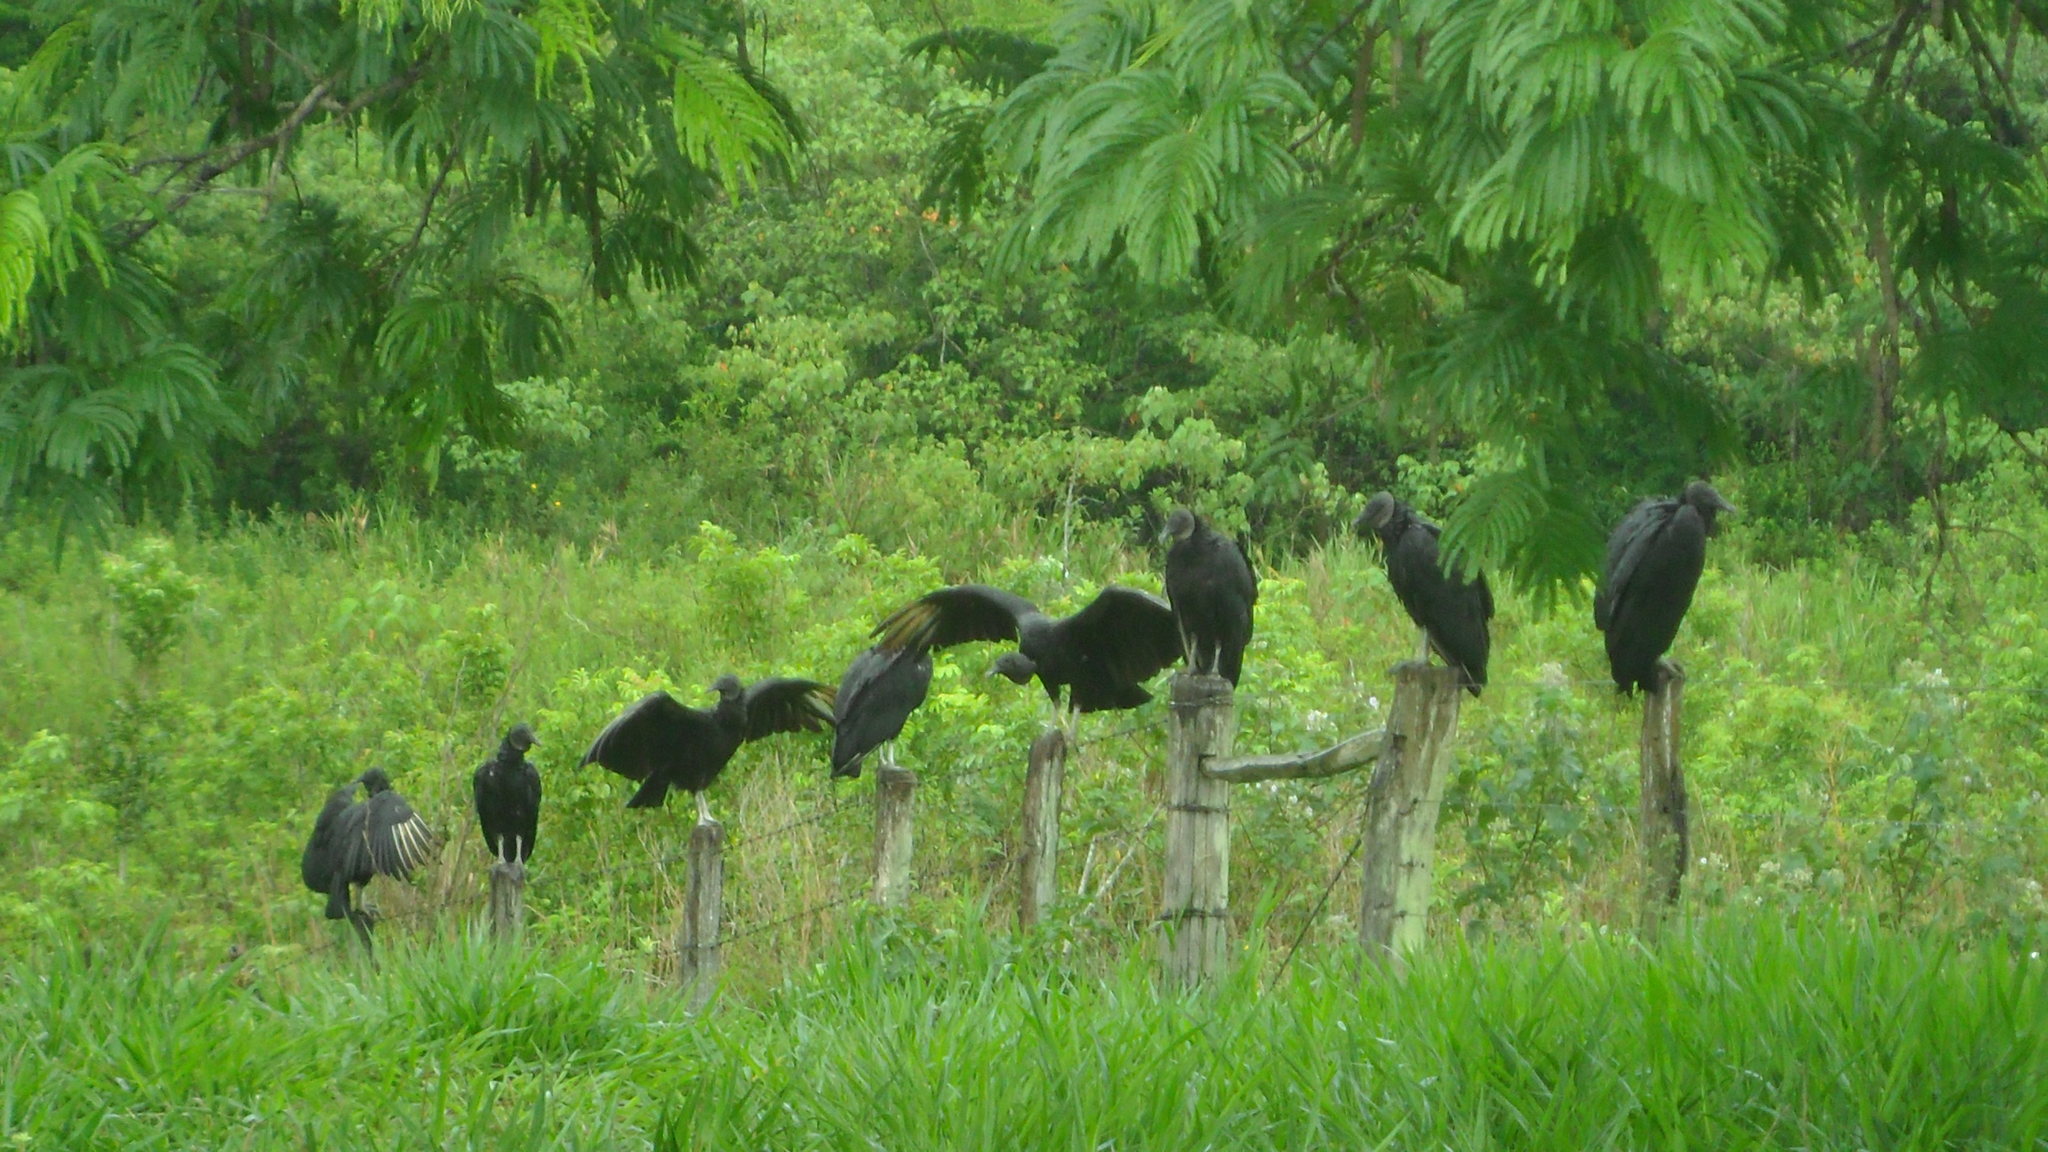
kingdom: Animalia
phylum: Chordata
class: Aves
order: Accipitriformes
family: Cathartidae
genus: Coragyps
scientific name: Coragyps atratus
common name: Black vulture
